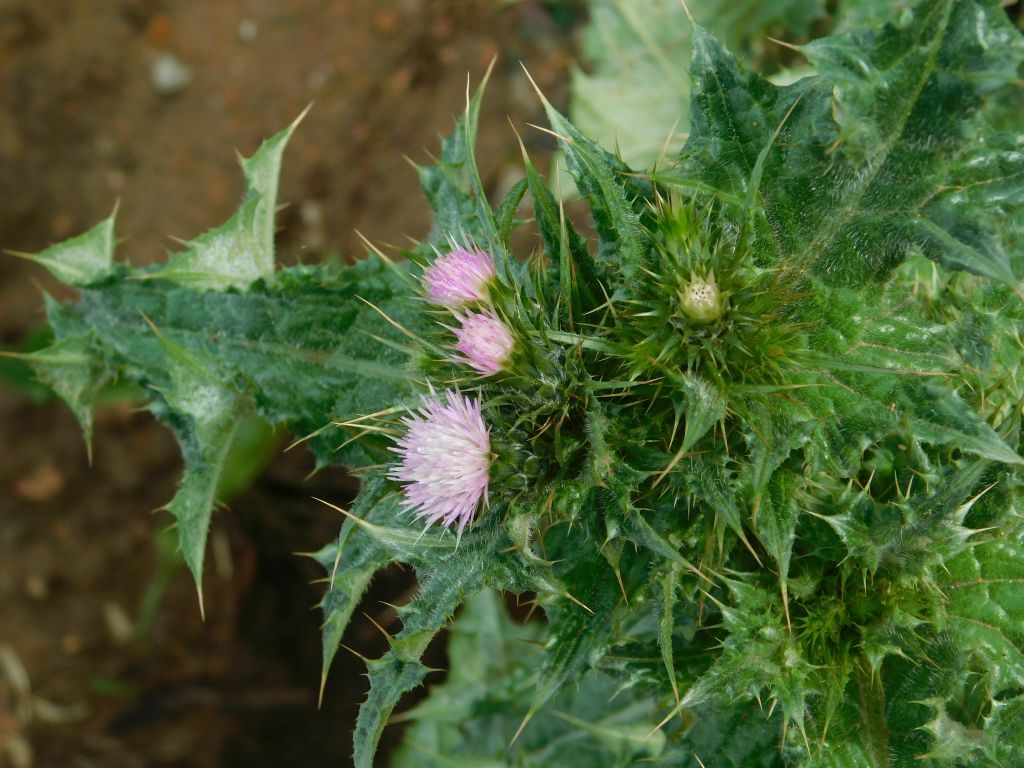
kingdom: Plantae
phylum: Tracheophyta
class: Magnoliopsida
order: Asterales
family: Asteraceae
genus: Cirsium
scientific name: Cirsium vulgare
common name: Bull thistle
